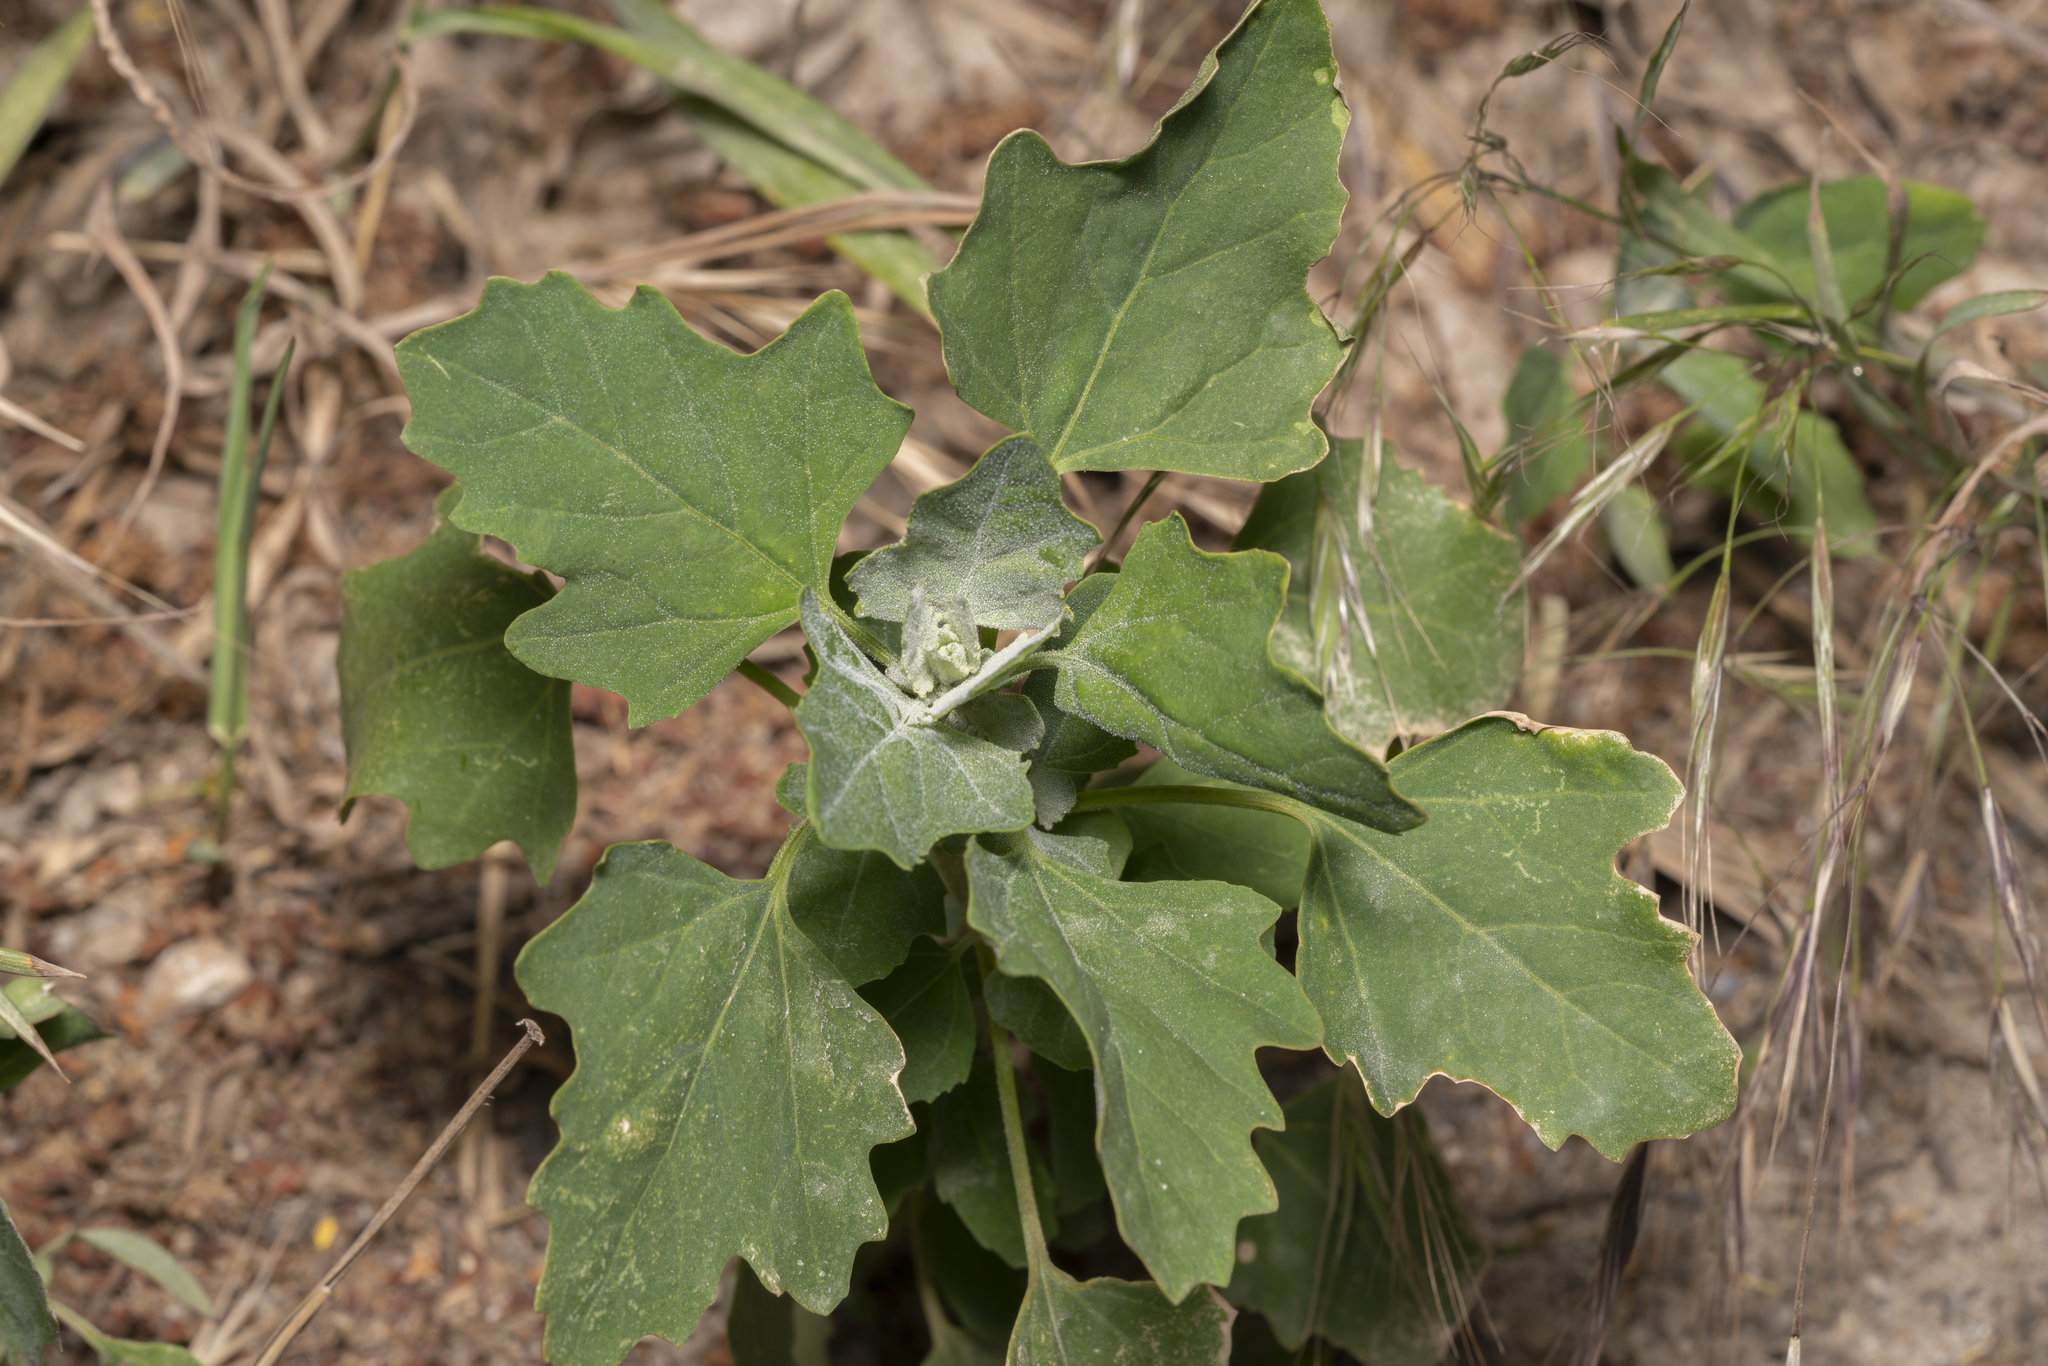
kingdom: Plantae
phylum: Tracheophyta
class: Magnoliopsida
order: Caryophyllales
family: Amaranthaceae
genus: Chenopodium
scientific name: Chenopodium album
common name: Fat-hen
